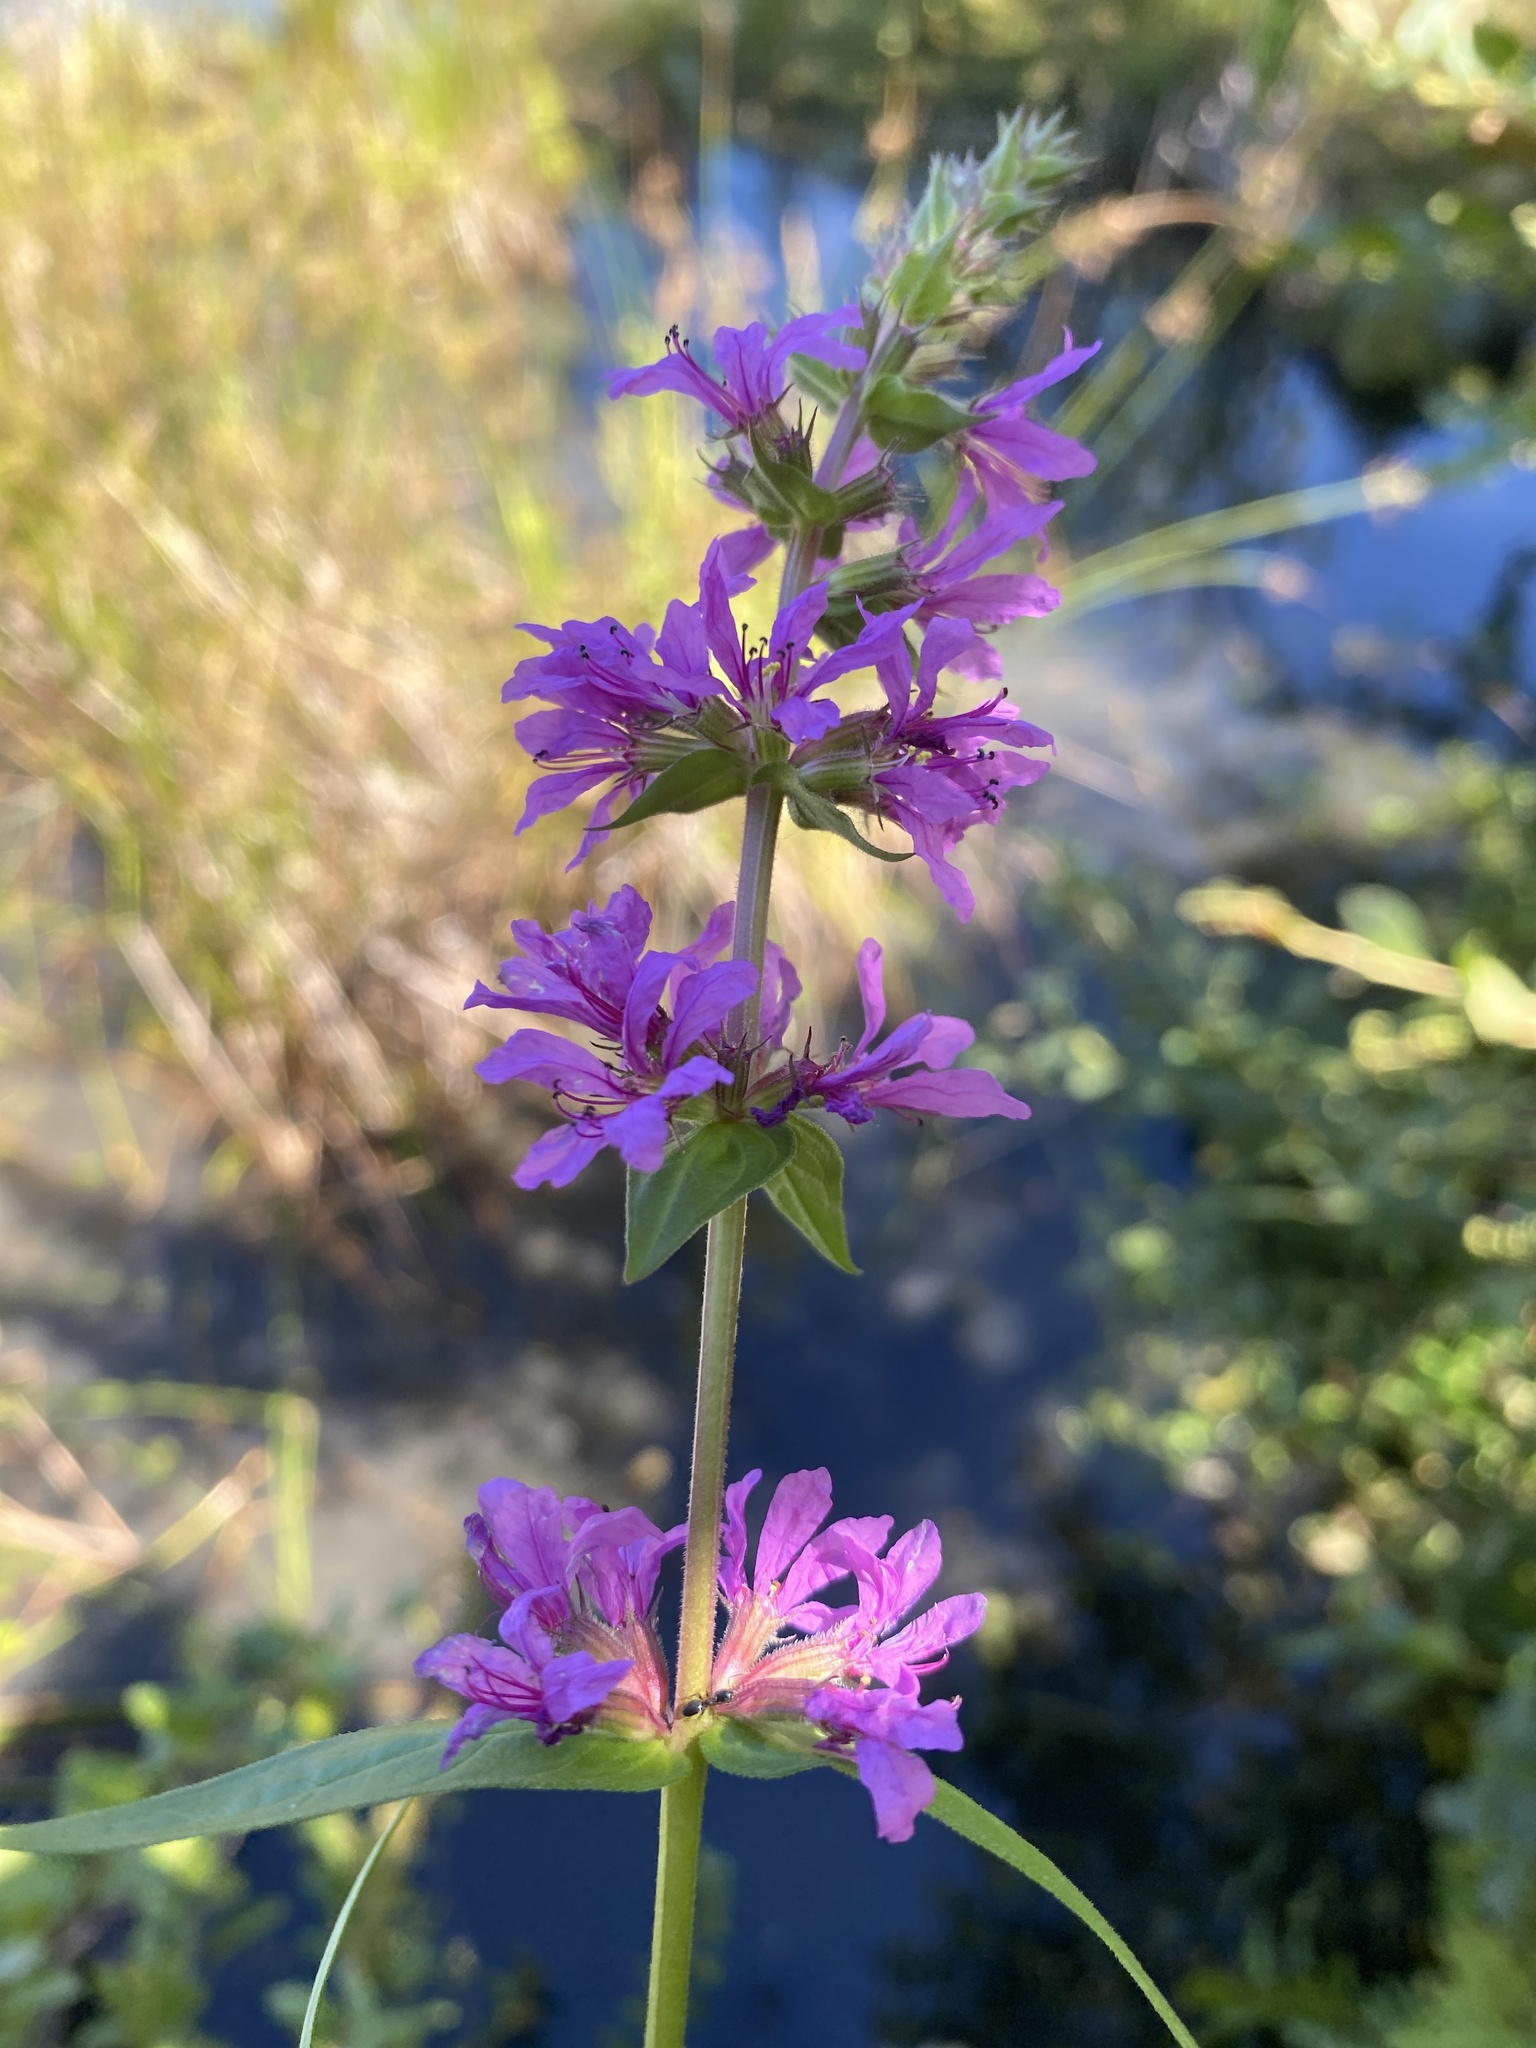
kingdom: Plantae
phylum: Tracheophyta
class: Magnoliopsida
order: Myrtales
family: Lythraceae
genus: Lythrum
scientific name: Lythrum salicaria
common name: Purple loosestrife
